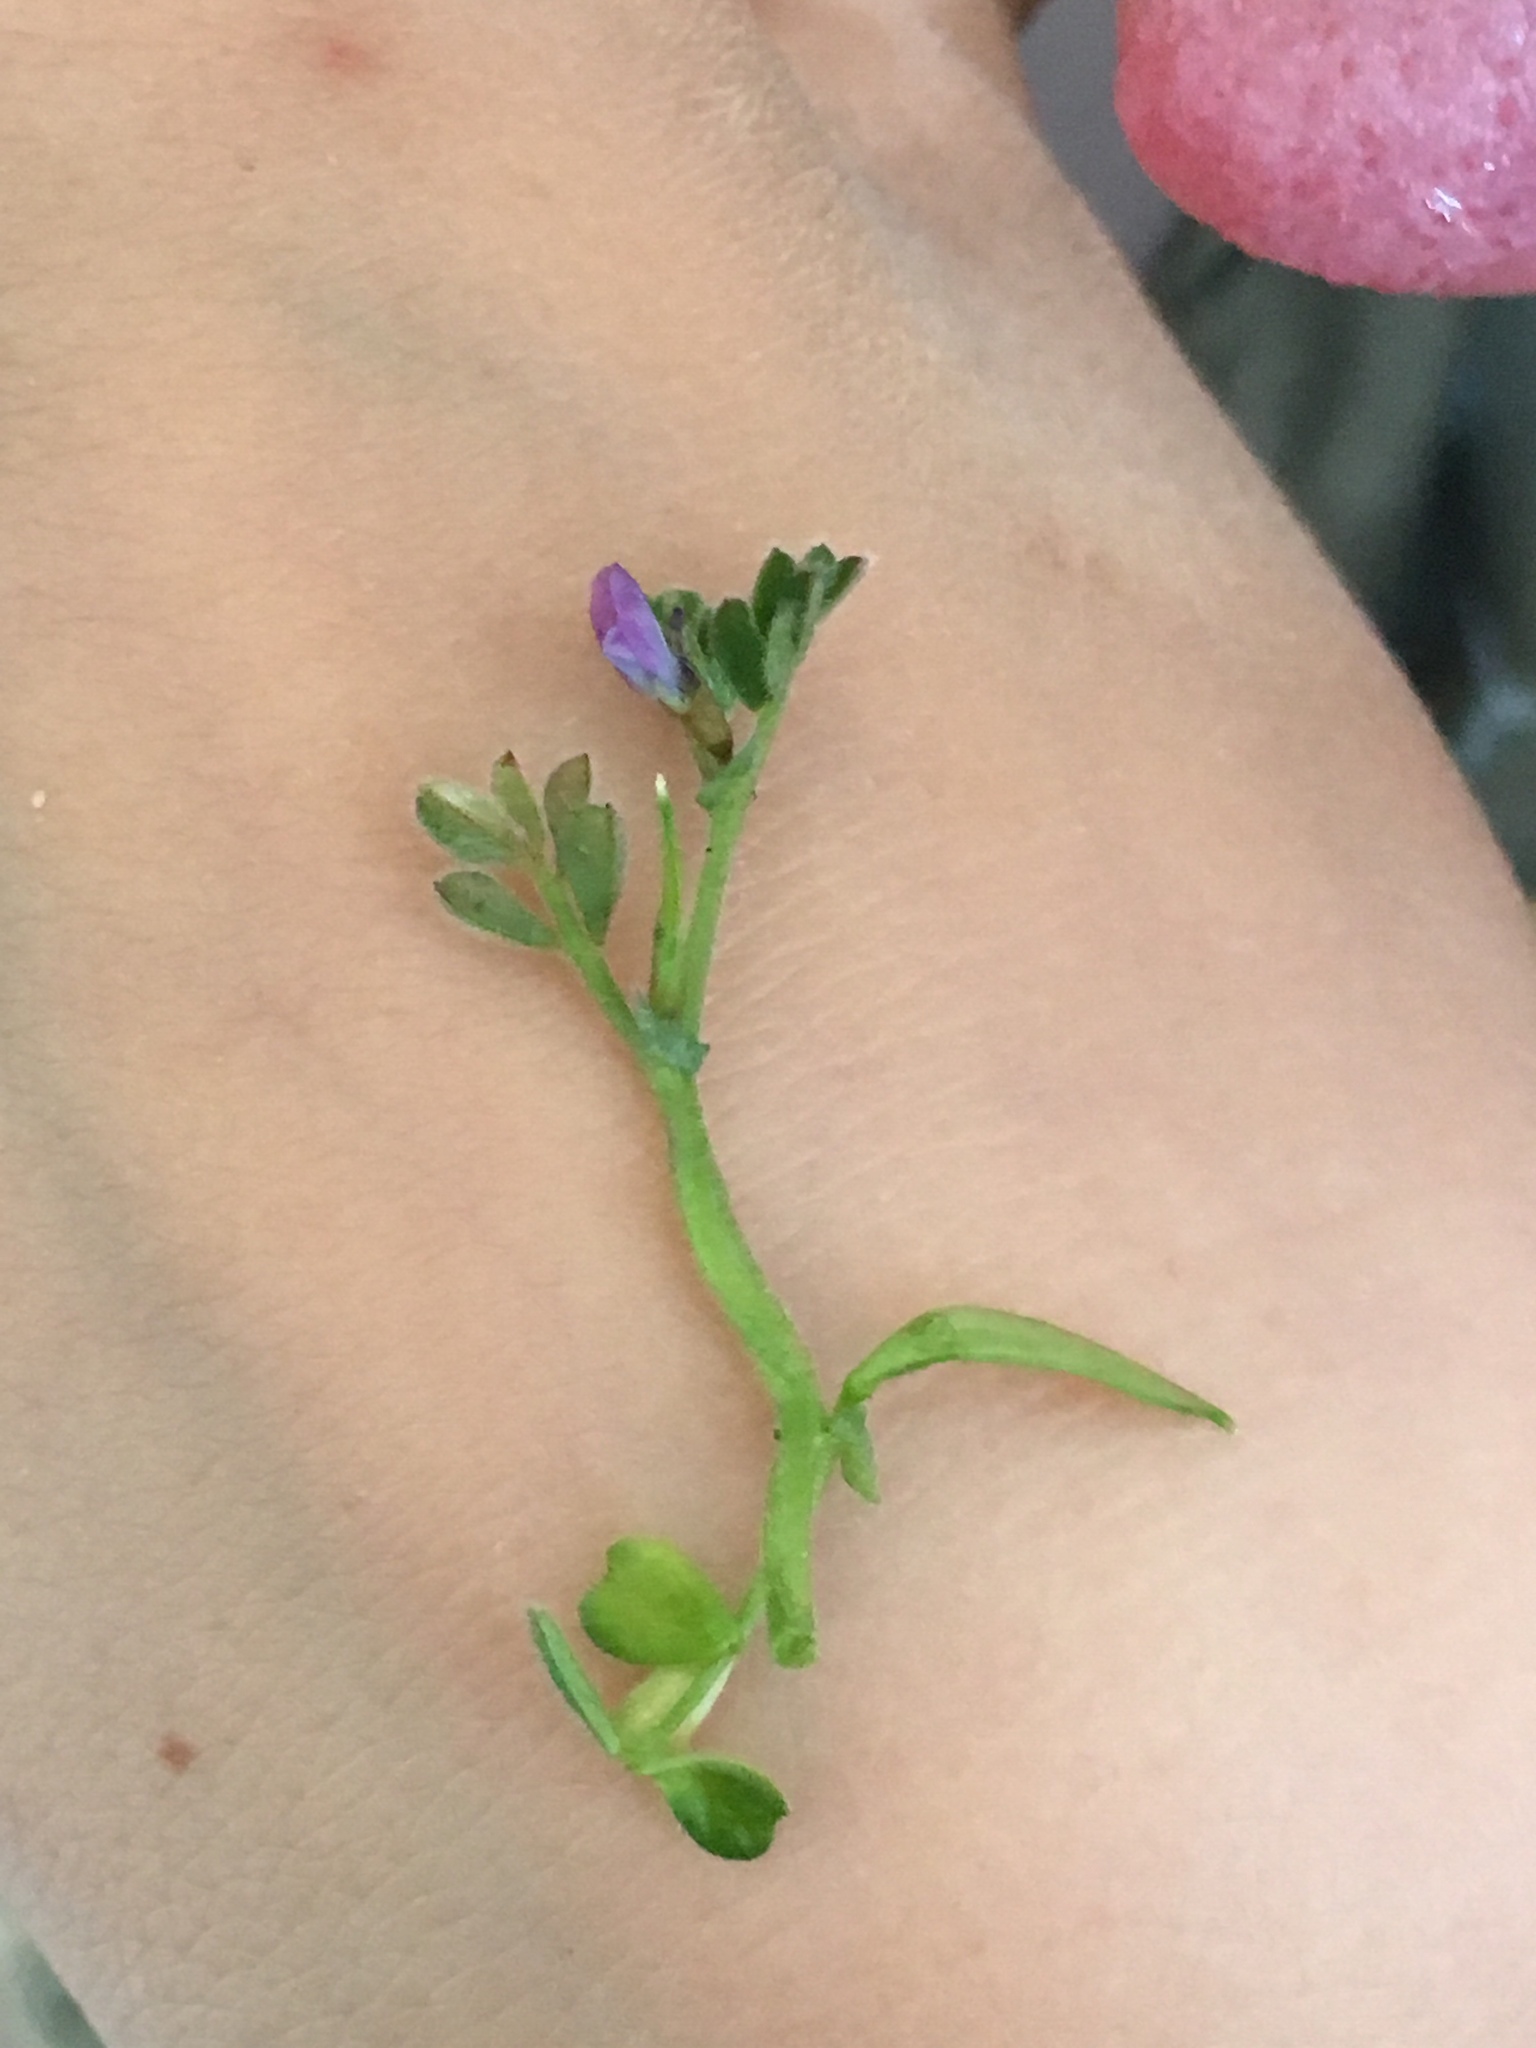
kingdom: Plantae
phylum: Tracheophyta
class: Magnoliopsida
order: Fabales
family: Fabaceae
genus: Vicia
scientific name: Vicia lathyroides
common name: Spring vetch
